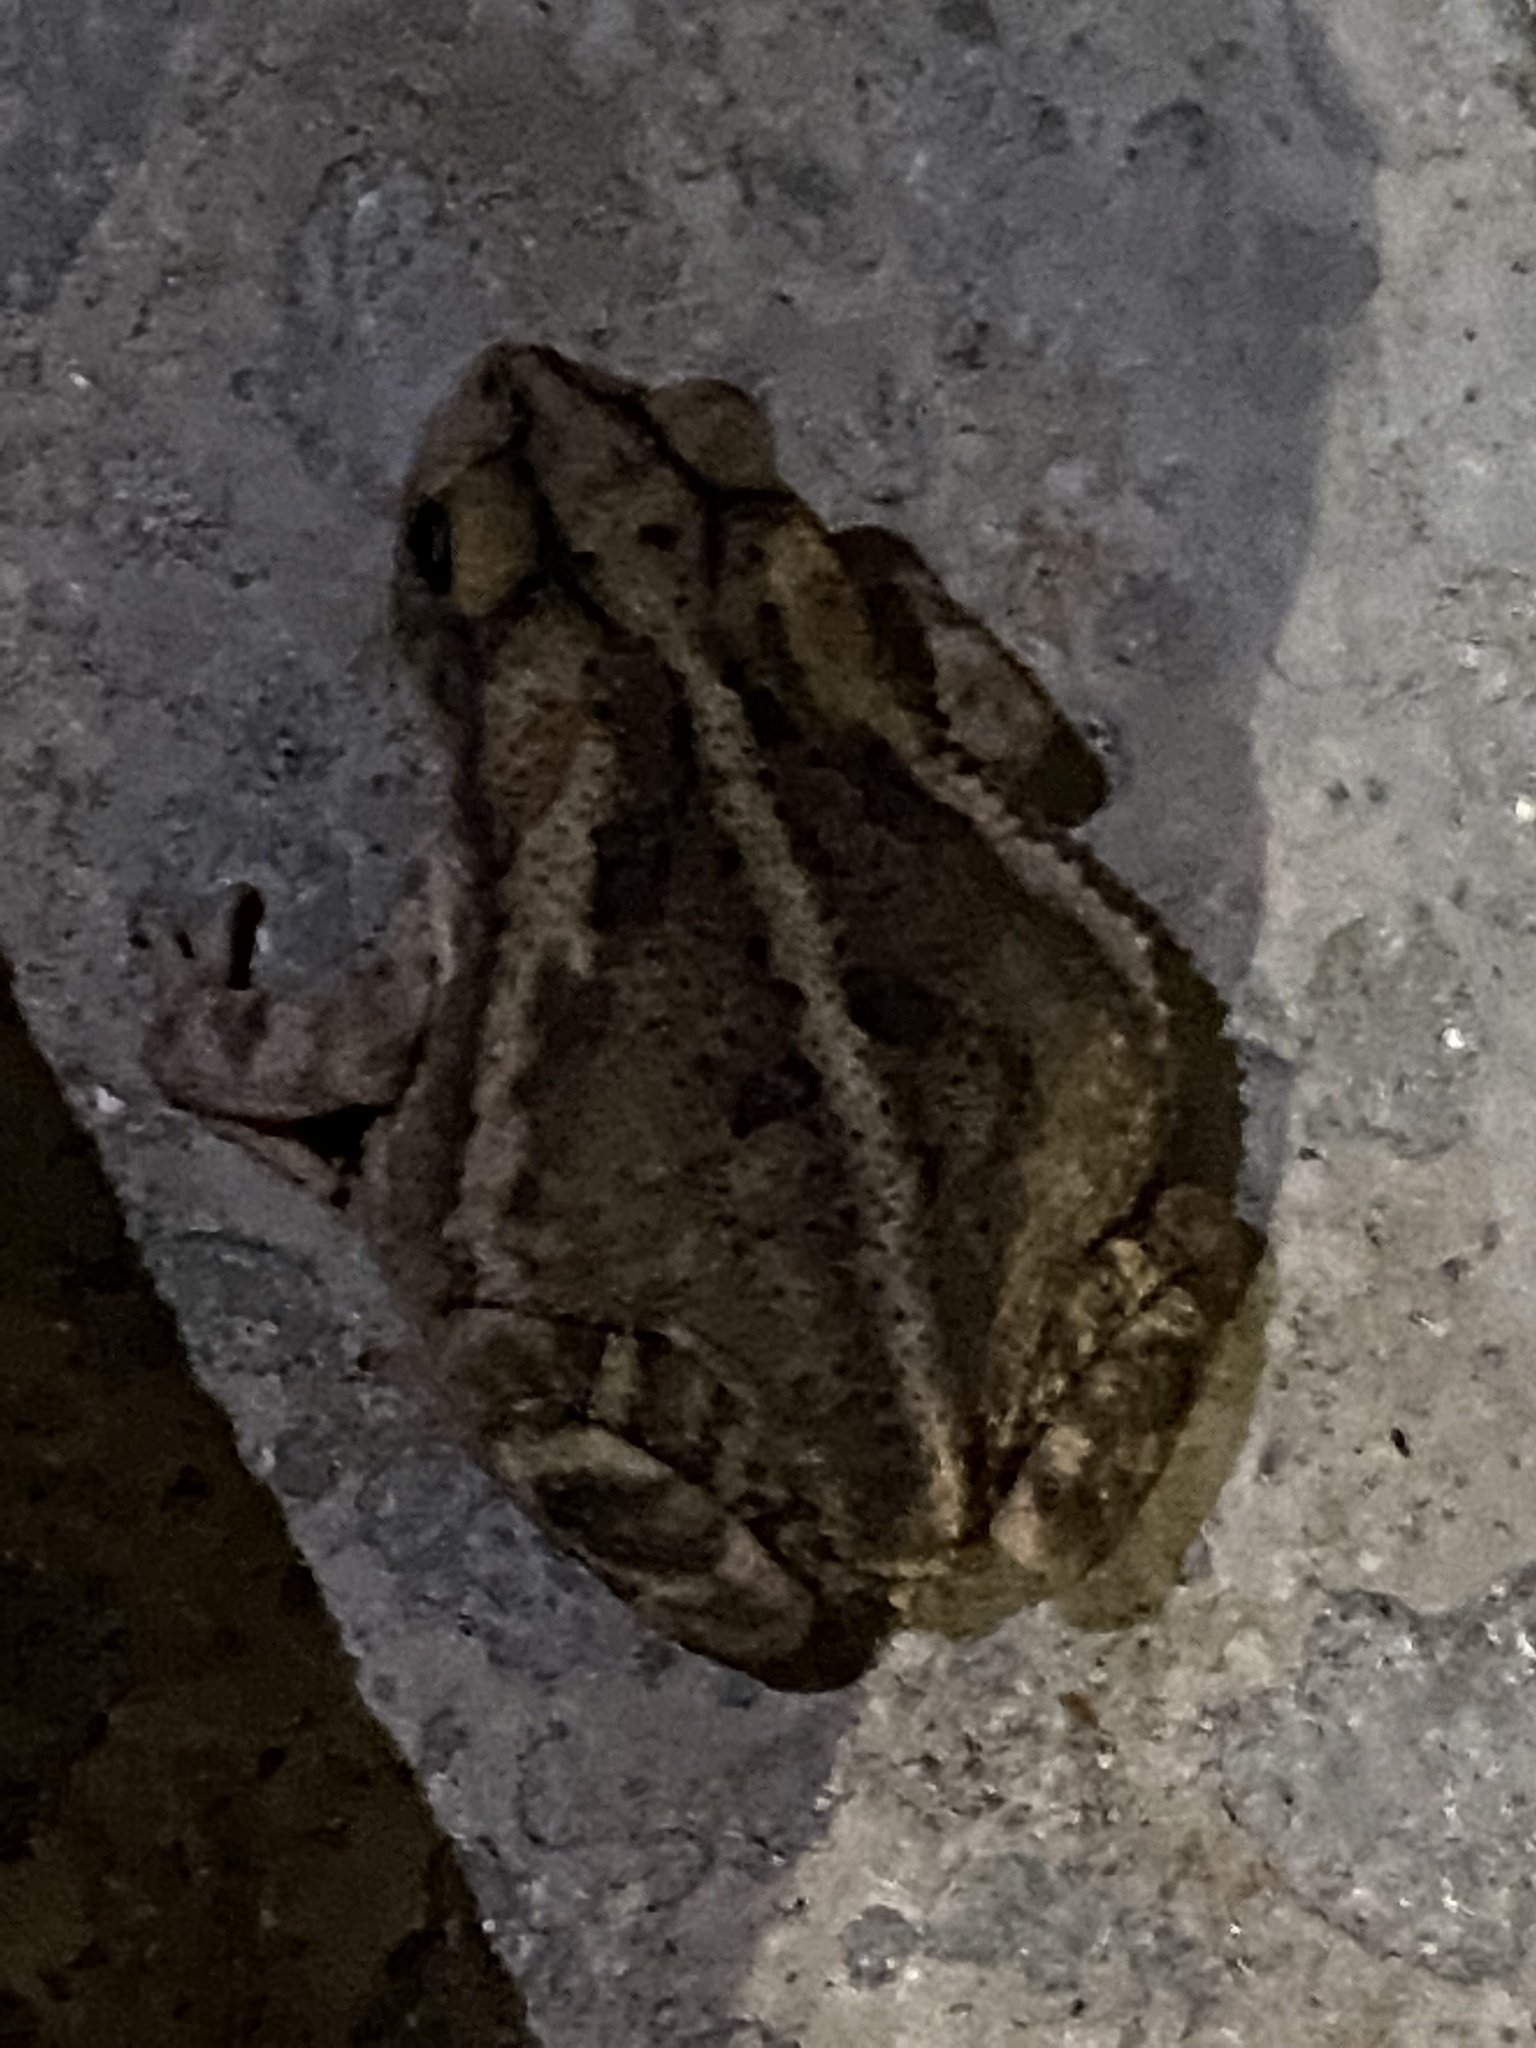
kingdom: Animalia
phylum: Chordata
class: Amphibia
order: Anura
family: Bufonidae
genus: Incilius
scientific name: Incilius nebulifer
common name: Gulf coast toad
